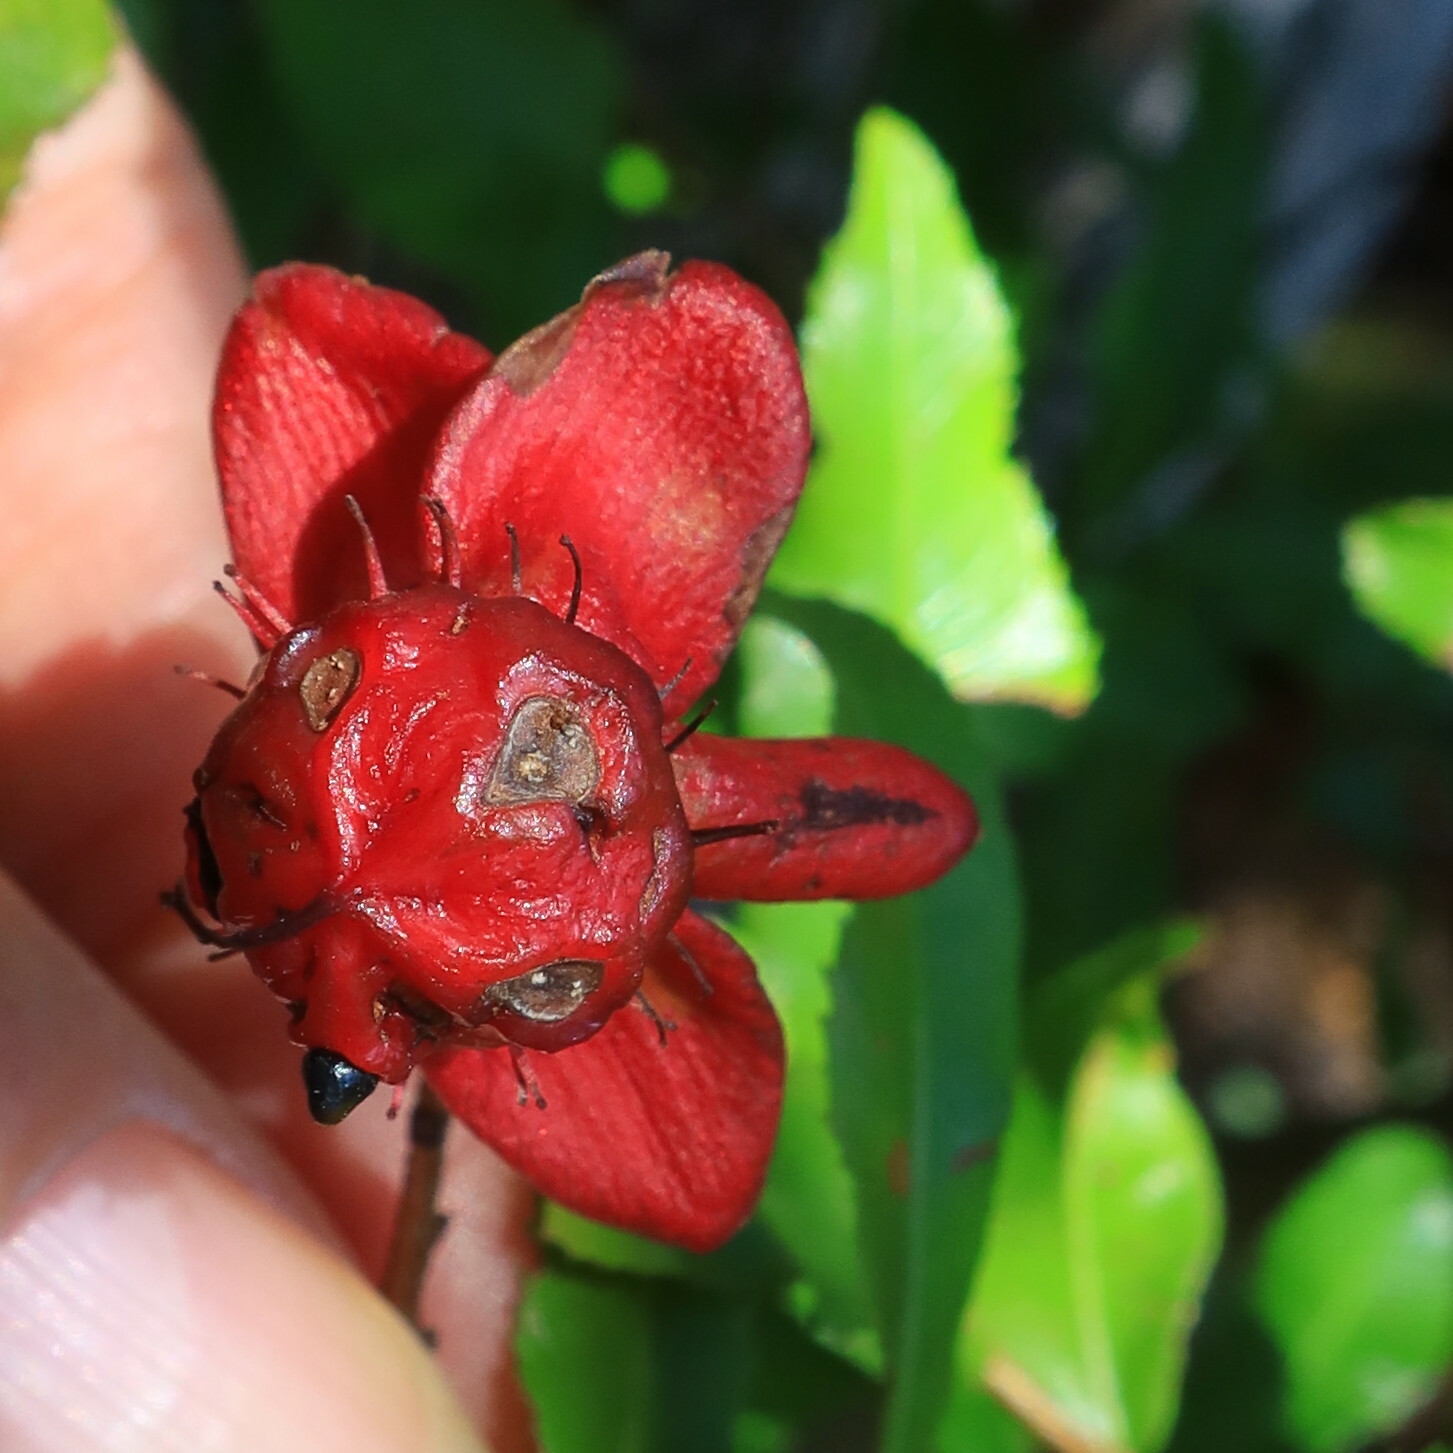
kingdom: Plantae
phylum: Tracheophyta
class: Magnoliopsida
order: Malpighiales
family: Ochnaceae
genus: Ochna
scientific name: Ochna serrulata
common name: Mickey mouse plant
